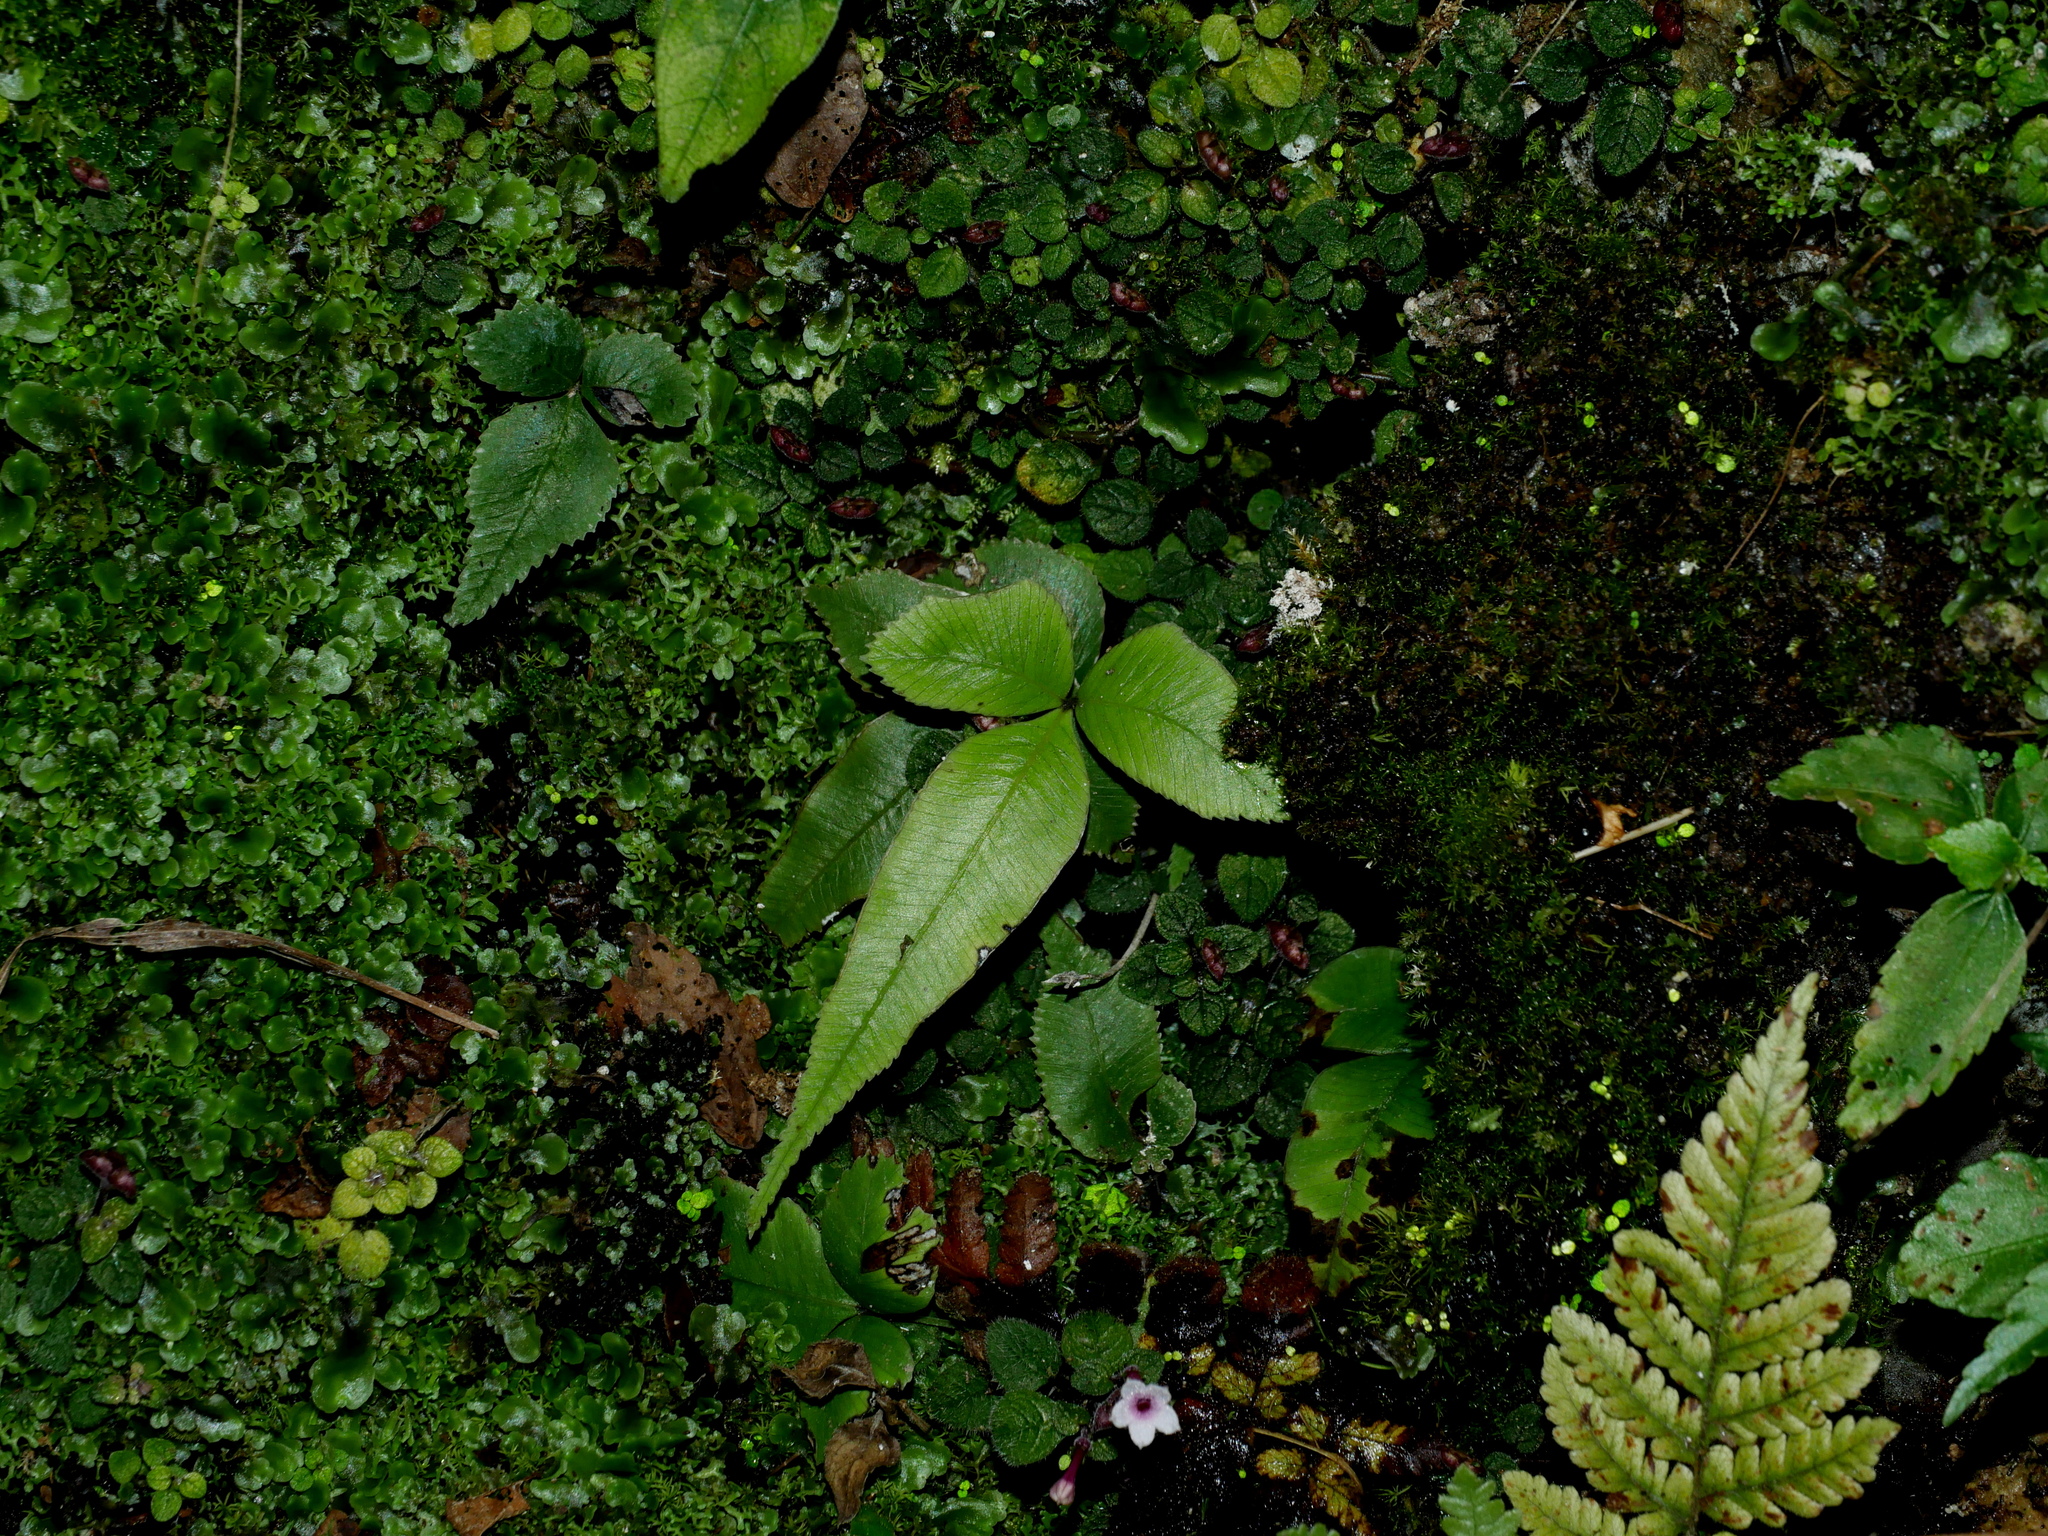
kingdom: Plantae
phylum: Tracheophyta
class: Polypodiopsida
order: Polypodiales
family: Pteridaceae
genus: Pteris
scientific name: Pteris deltodon
